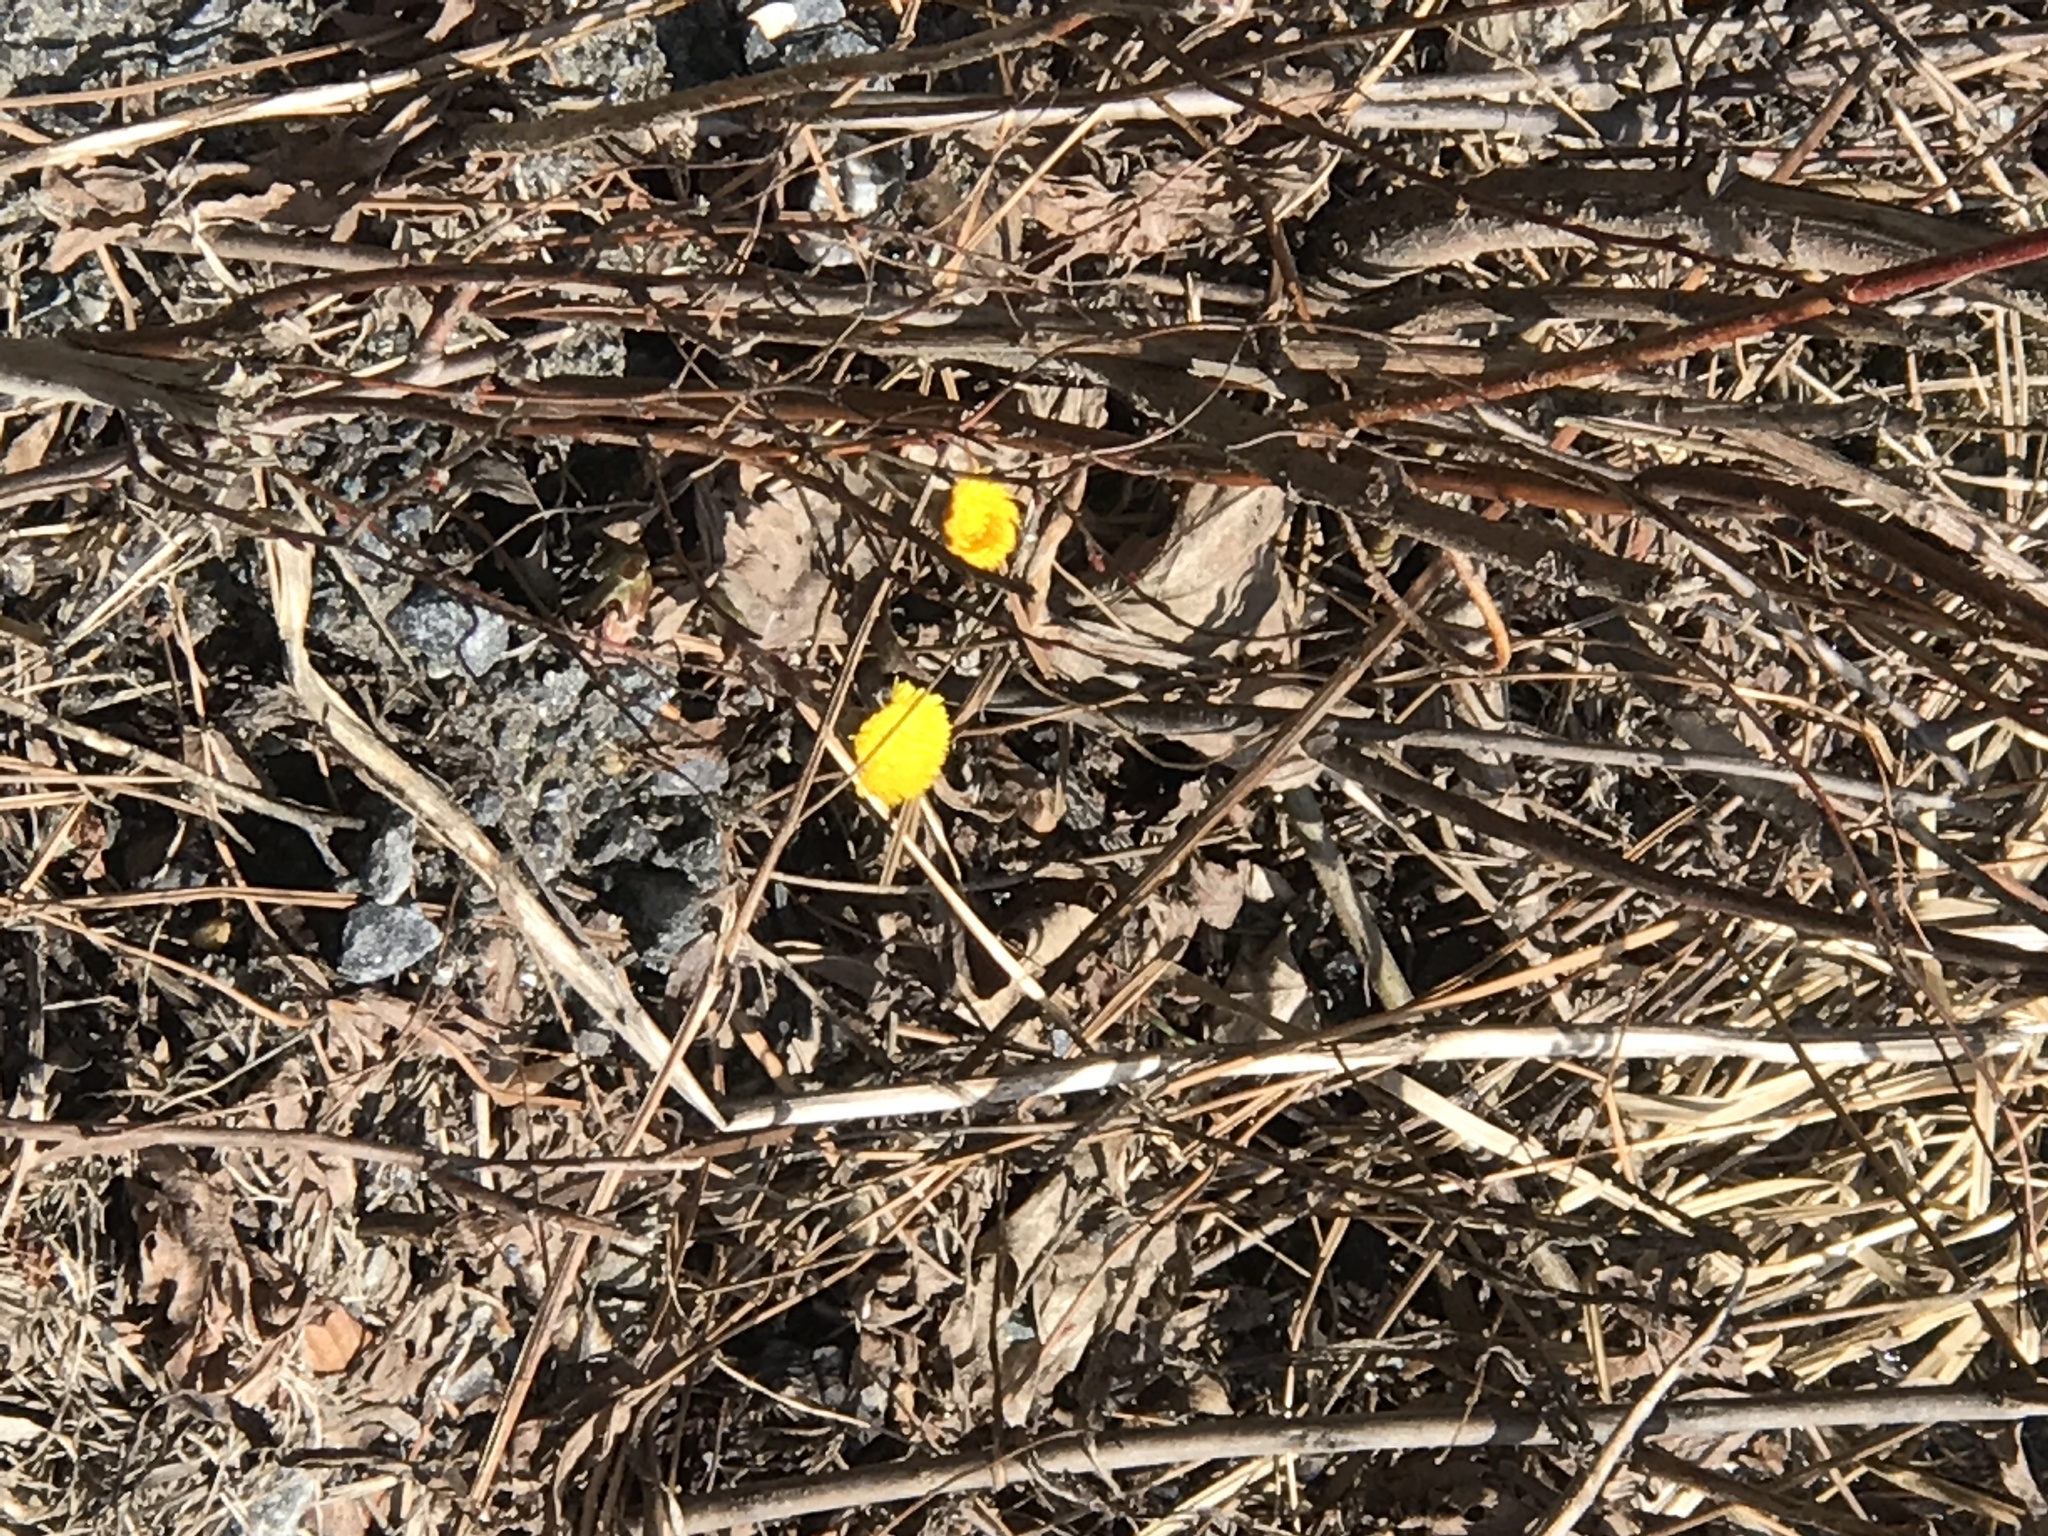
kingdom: Plantae
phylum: Tracheophyta
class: Magnoliopsida
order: Asterales
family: Asteraceae
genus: Tussilago
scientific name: Tussilago farfara
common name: Coltsfoot
